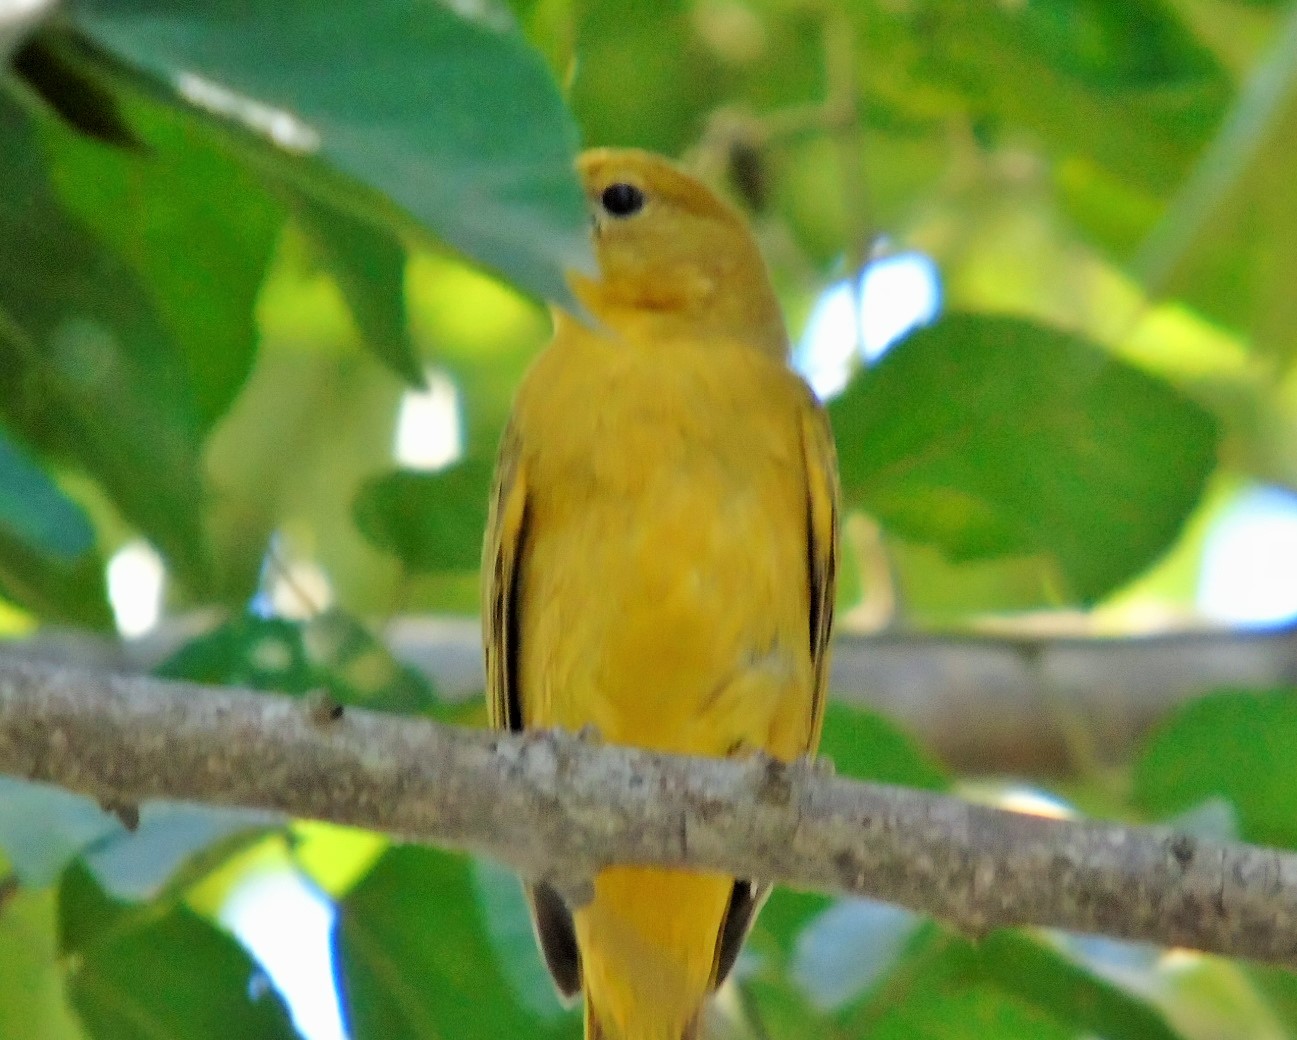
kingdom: Animalia
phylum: Chordata
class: Aves
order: Passeriformes
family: Cardinalidae
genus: Piranga
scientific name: Piranga rubra
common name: Summer tanager
